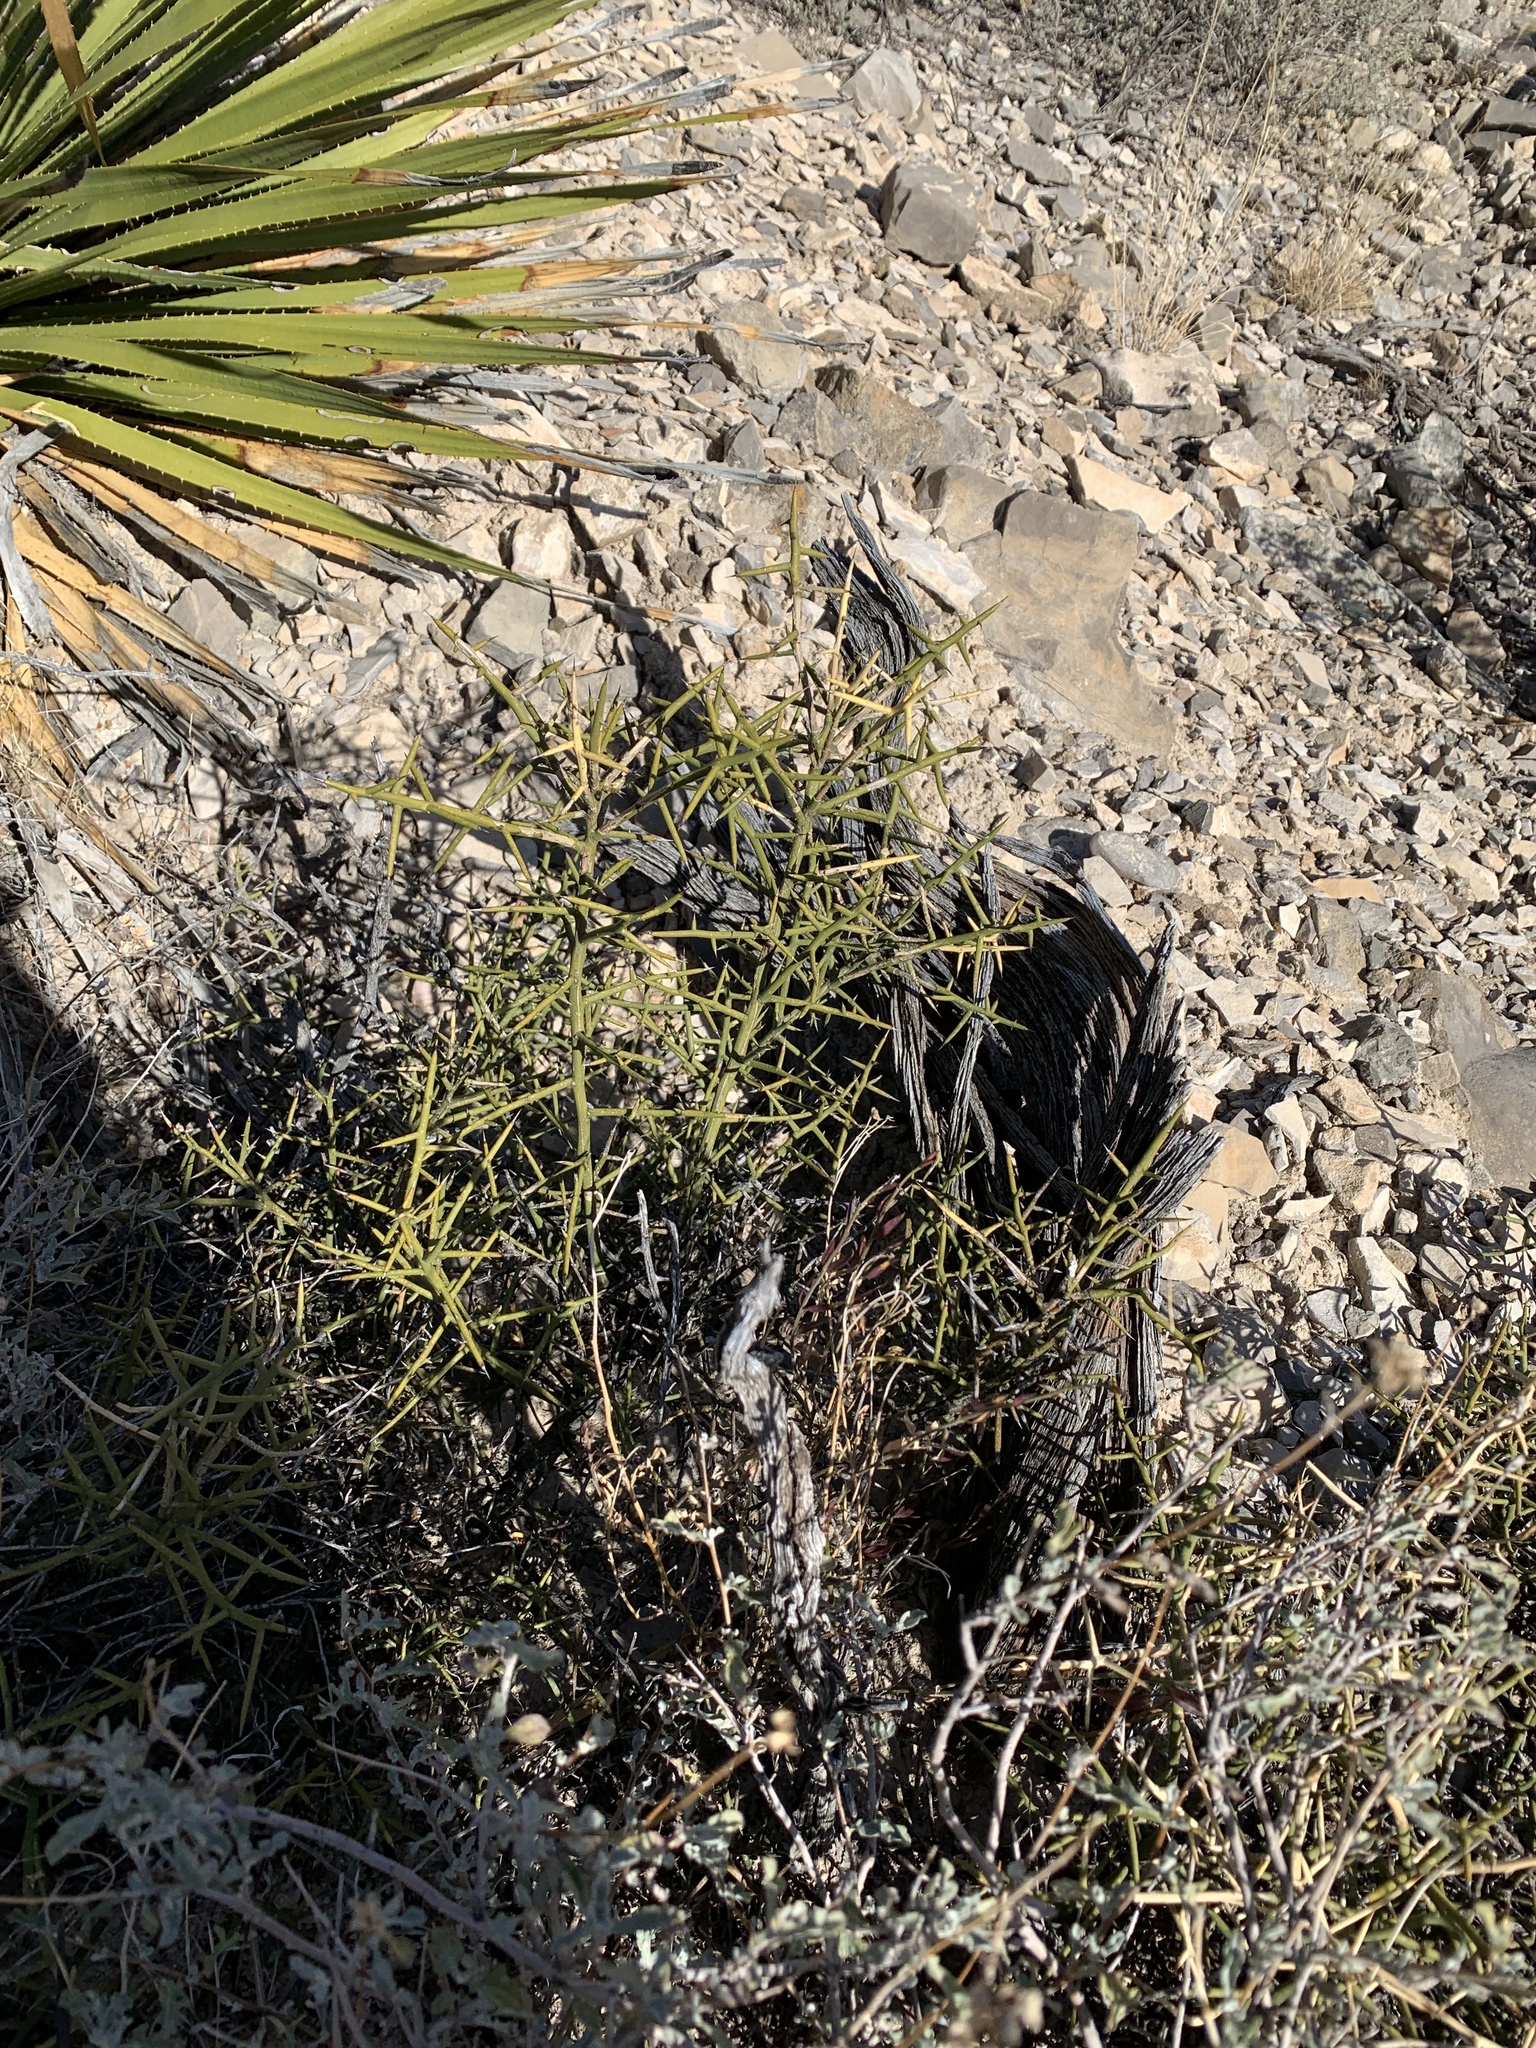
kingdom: Plantae
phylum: Tracheophyta
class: Magnoliopsida
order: Brassicales
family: Koeberliniaceae
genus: Koeberlinia
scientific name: Koeberlinia spinosa
